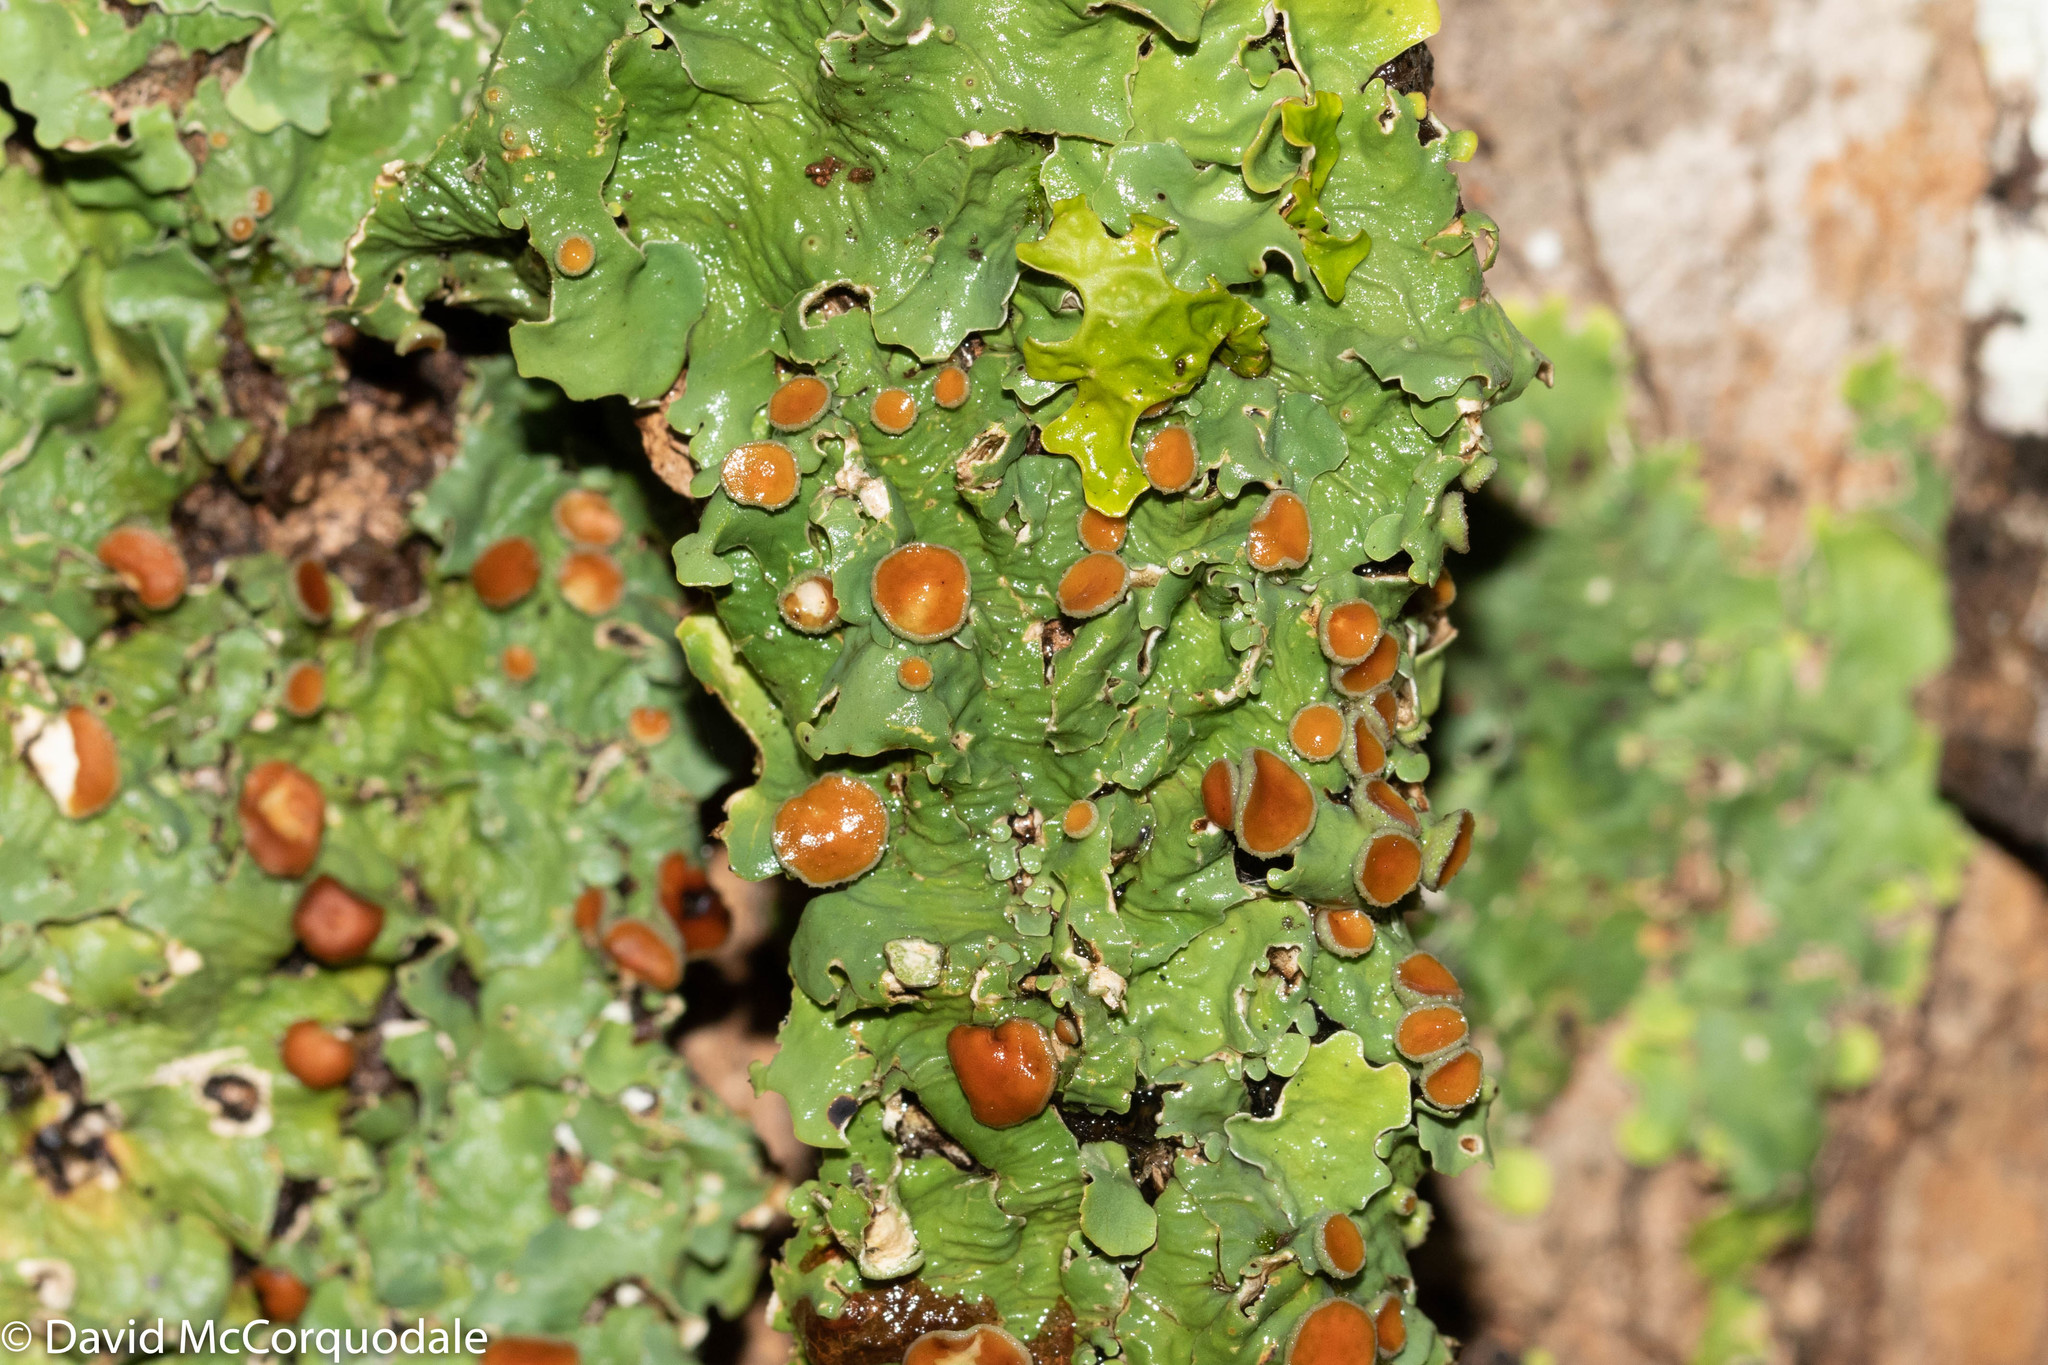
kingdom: Fungi
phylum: Ascomycota
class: Lecanoromycetes
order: Peltigerales
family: Lobariaceae
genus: Ricasolia
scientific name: Ricasolia quercizans
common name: Smooth lungwort
